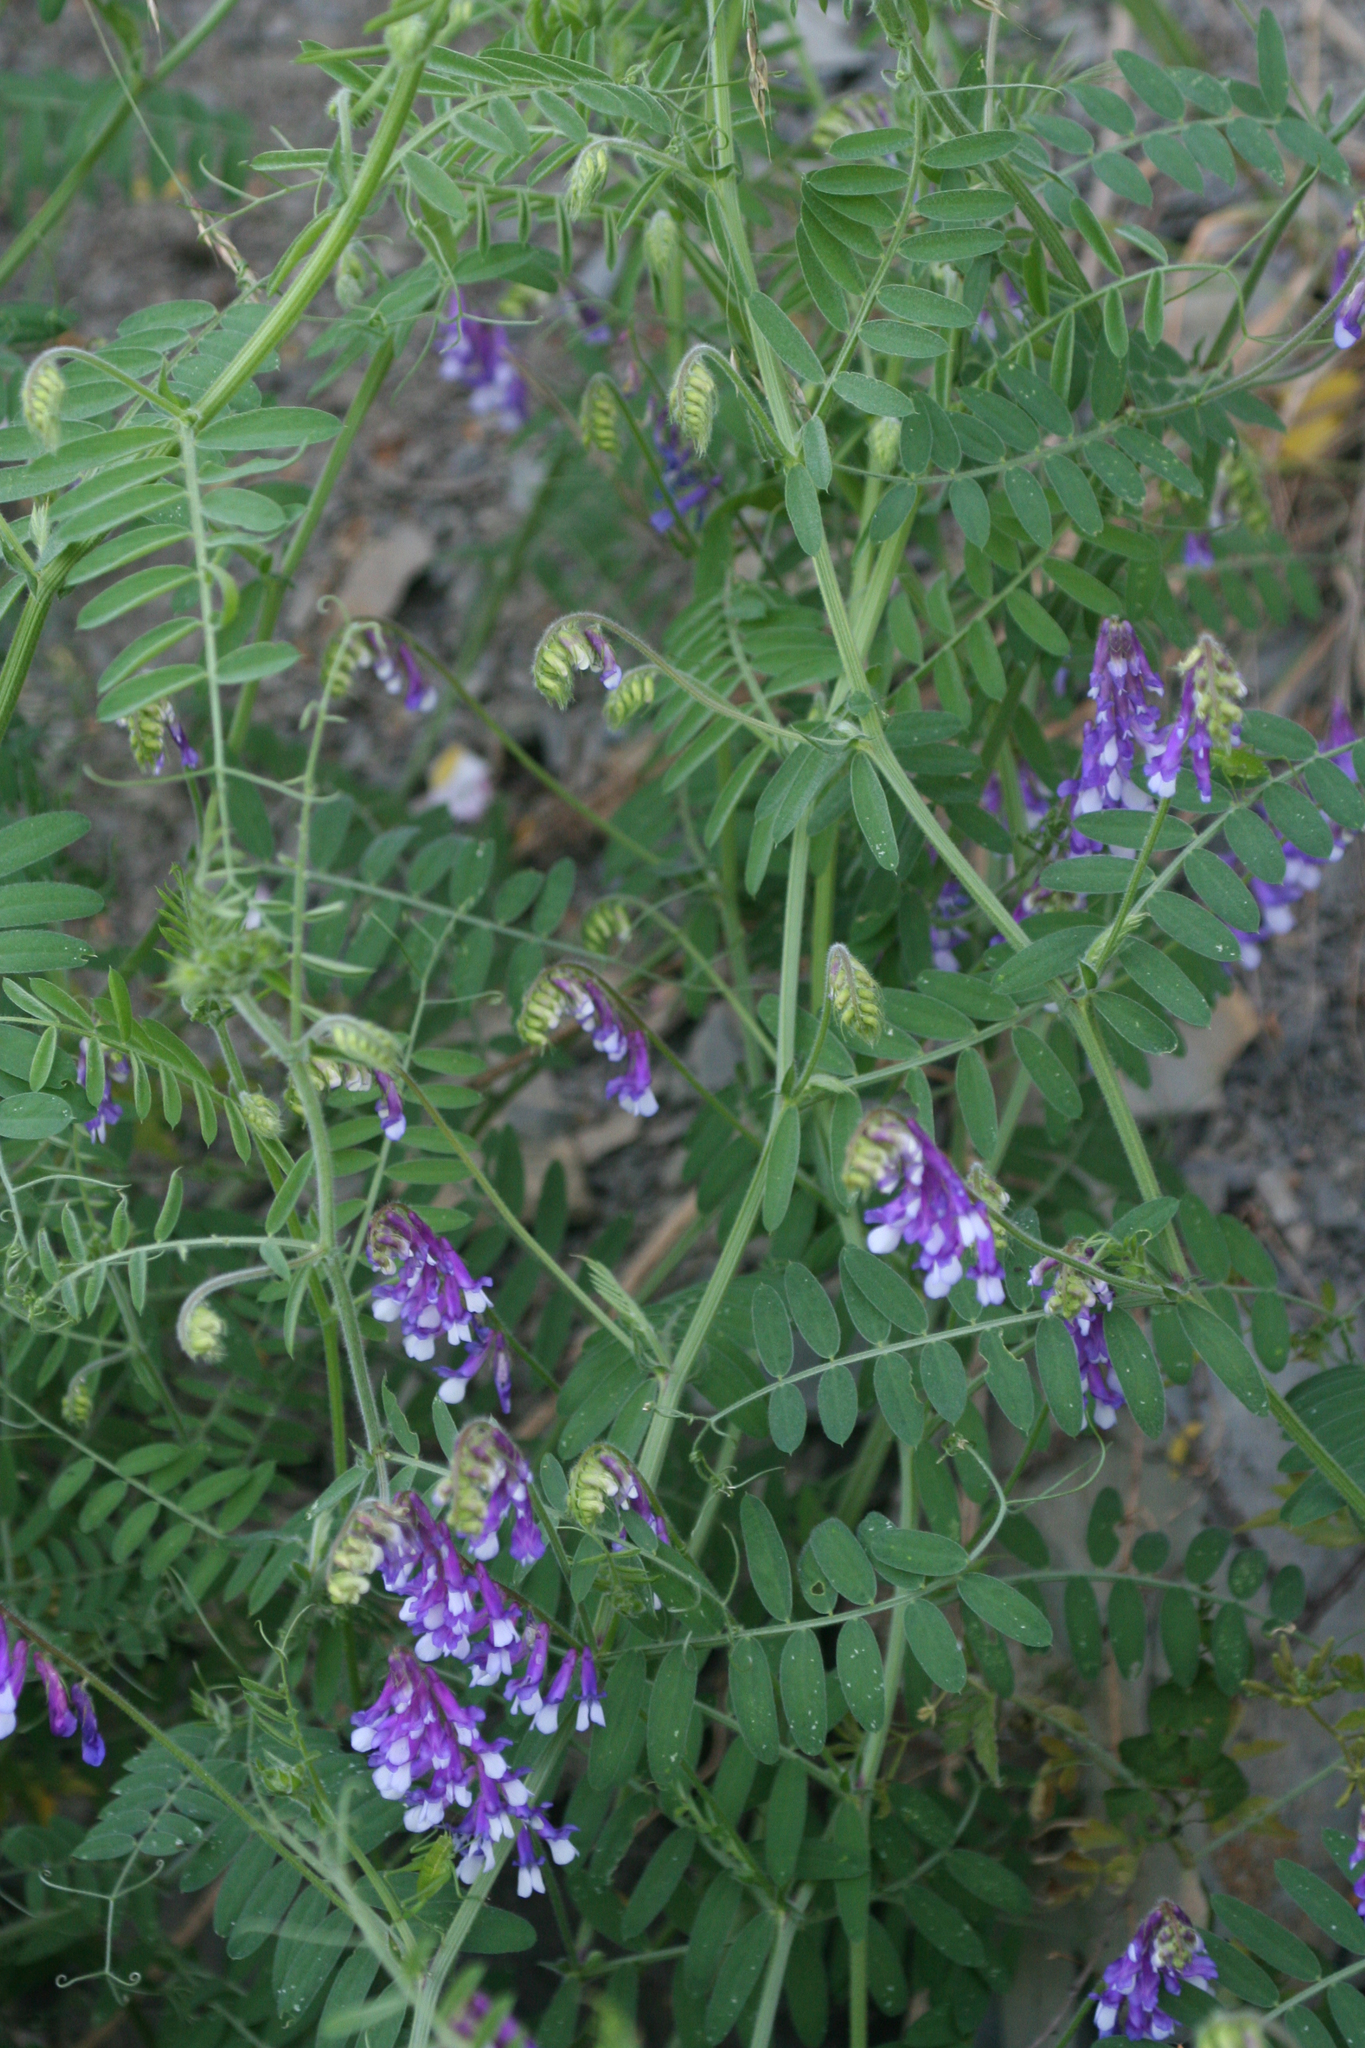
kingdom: Plantae
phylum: Tracheophyta
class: Magnoliopsida
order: Fabales
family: Fabaceae
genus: Vicia
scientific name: Vicia villosa
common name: Fodder vetch
